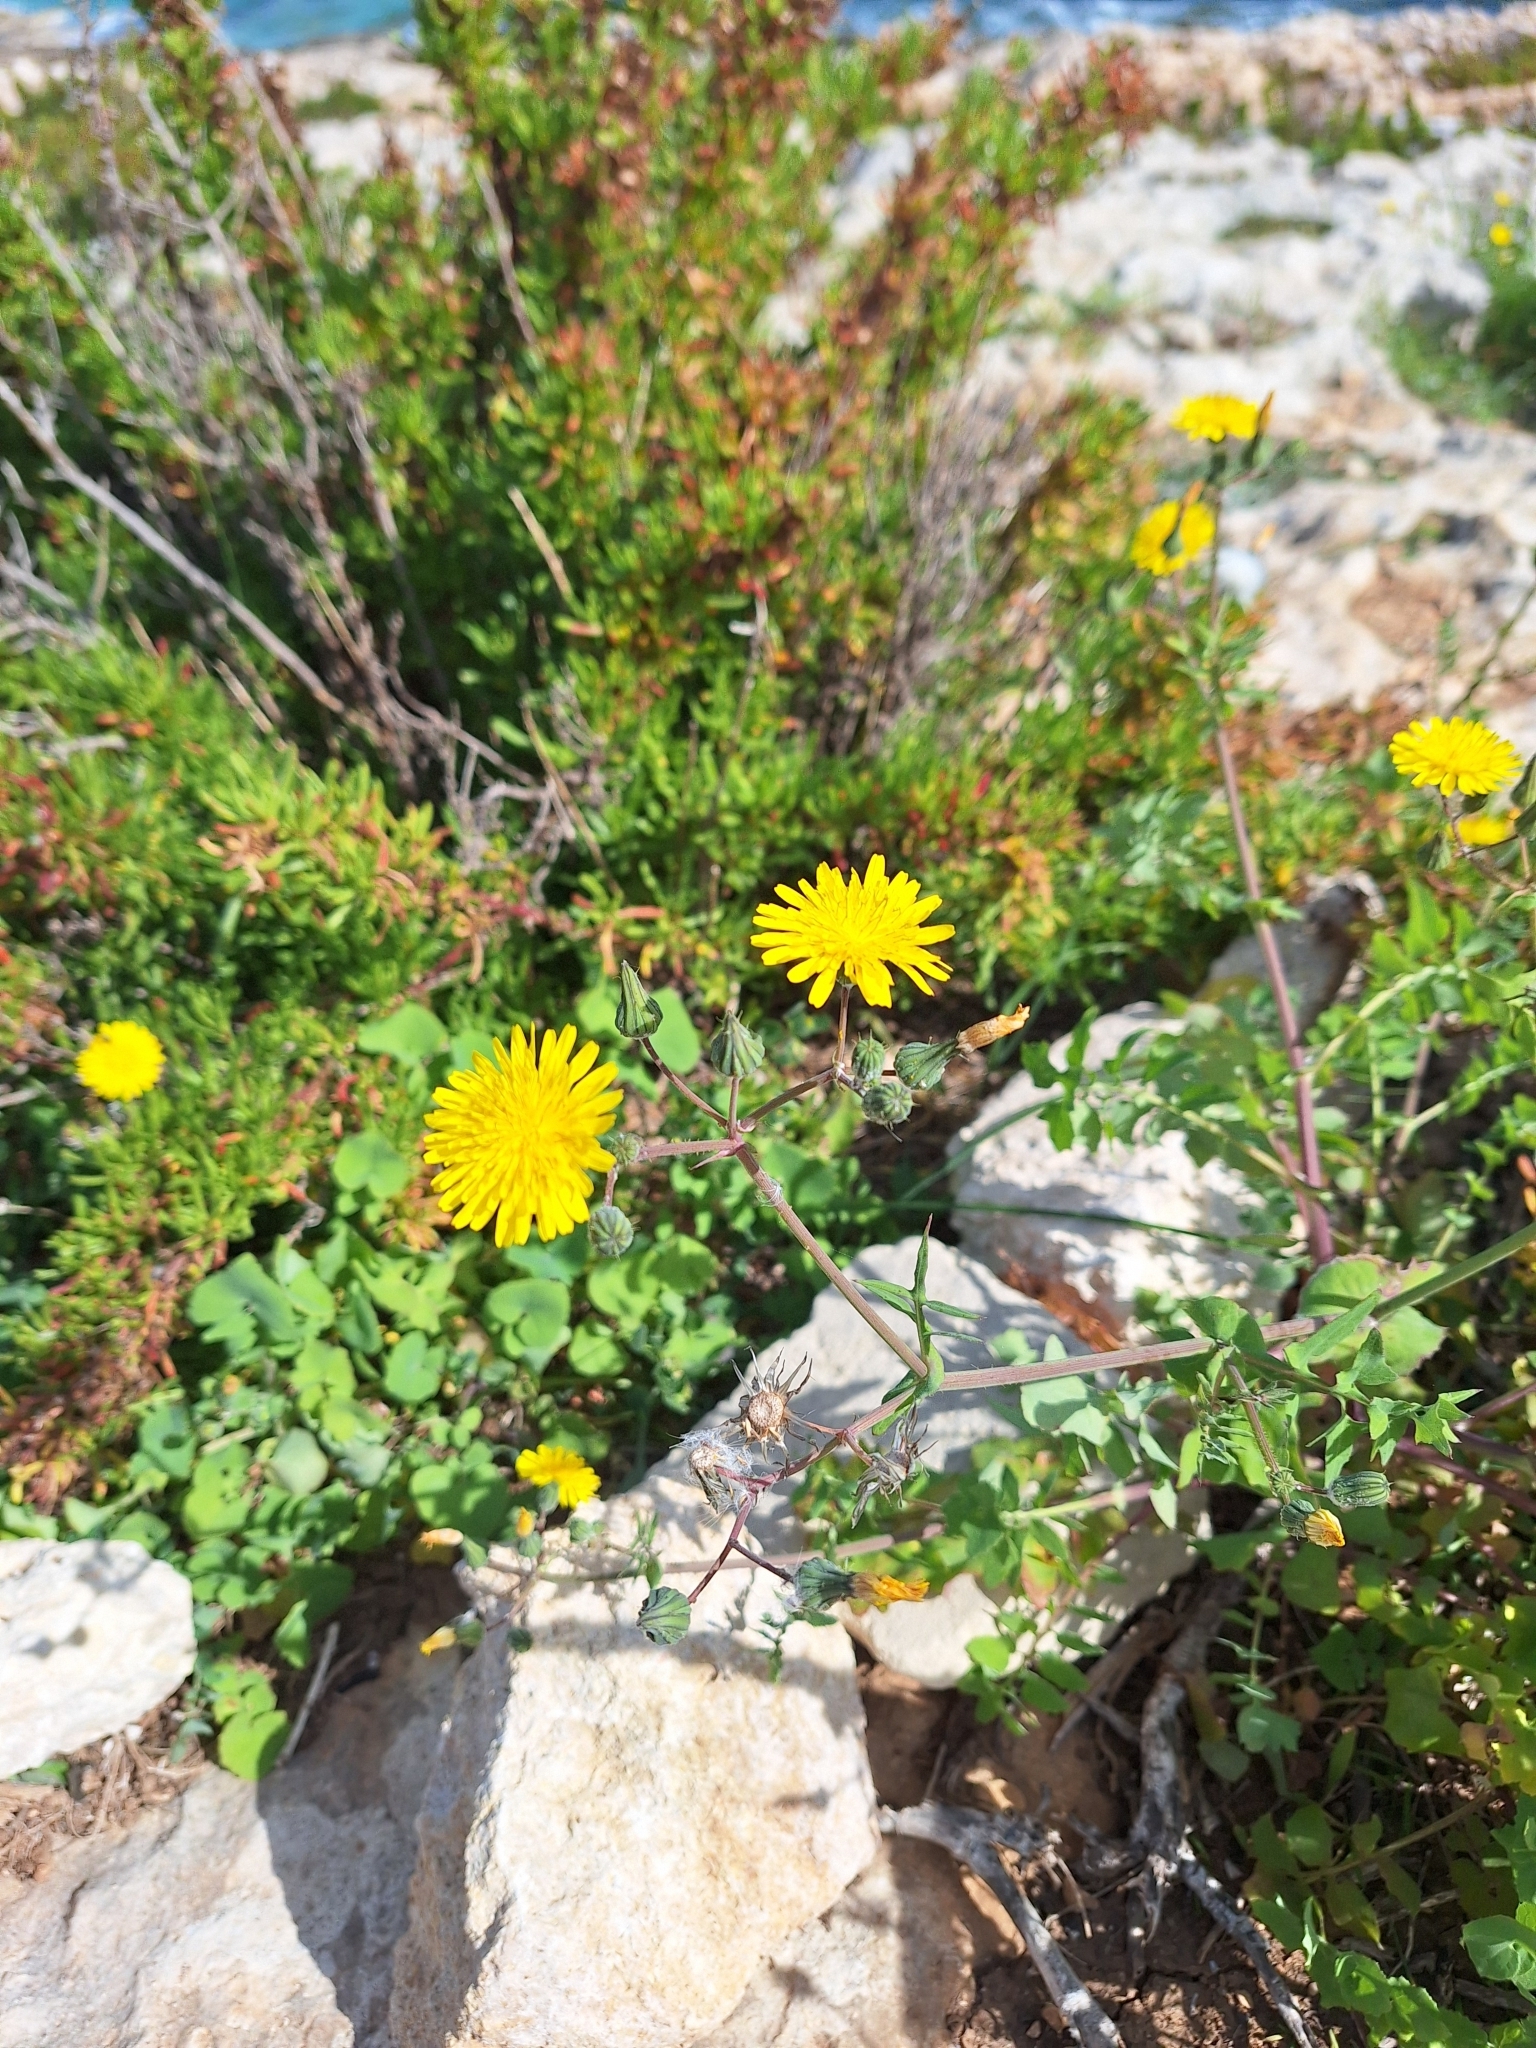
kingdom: Plantae
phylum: Tracheophyta
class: Magnoliopsida
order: Asterales
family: Asteraceae
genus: Sonchus
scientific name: Sonchus tenerrimus
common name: Clammy sowthistle
